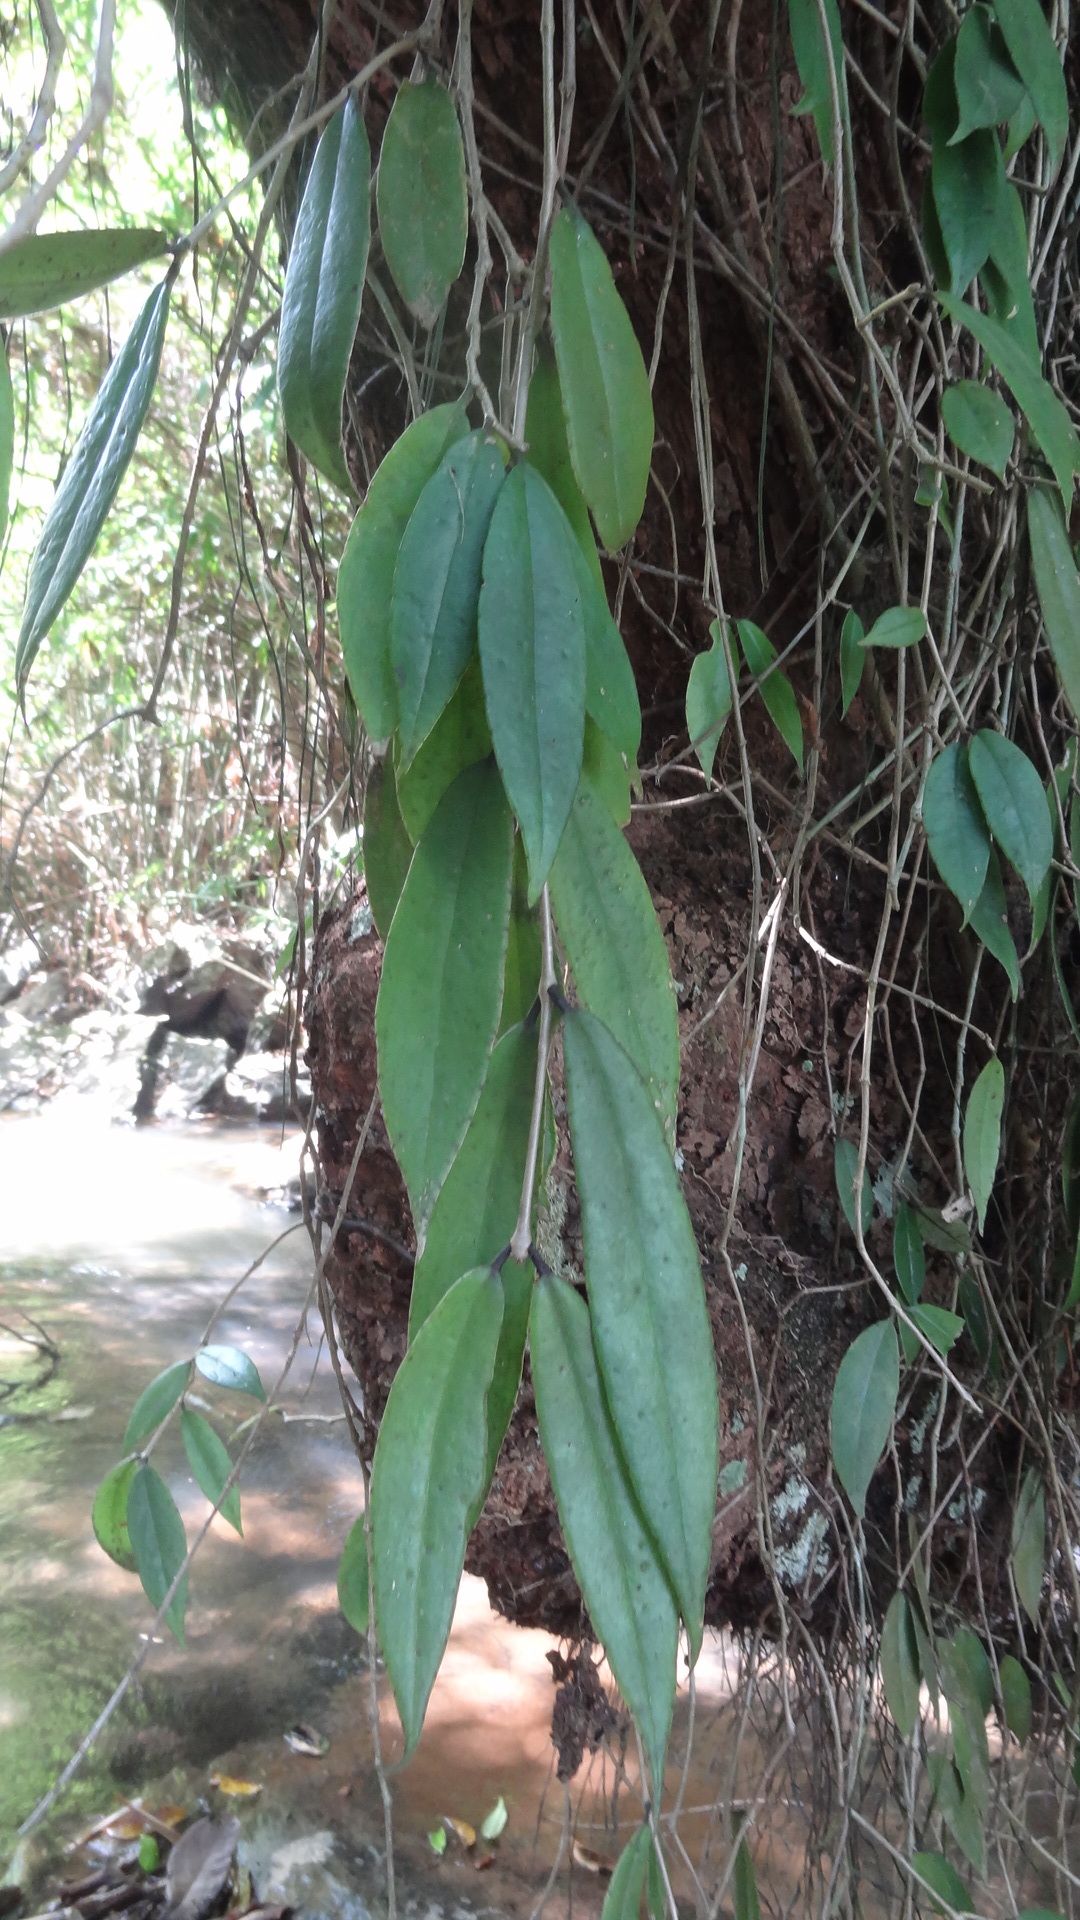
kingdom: Plantae
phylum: Tracheophyta
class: Magnoliopsida
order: Lamiales
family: Gesneriaceae
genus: Aeschynanthus
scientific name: Aeschynanthus perrottetii
